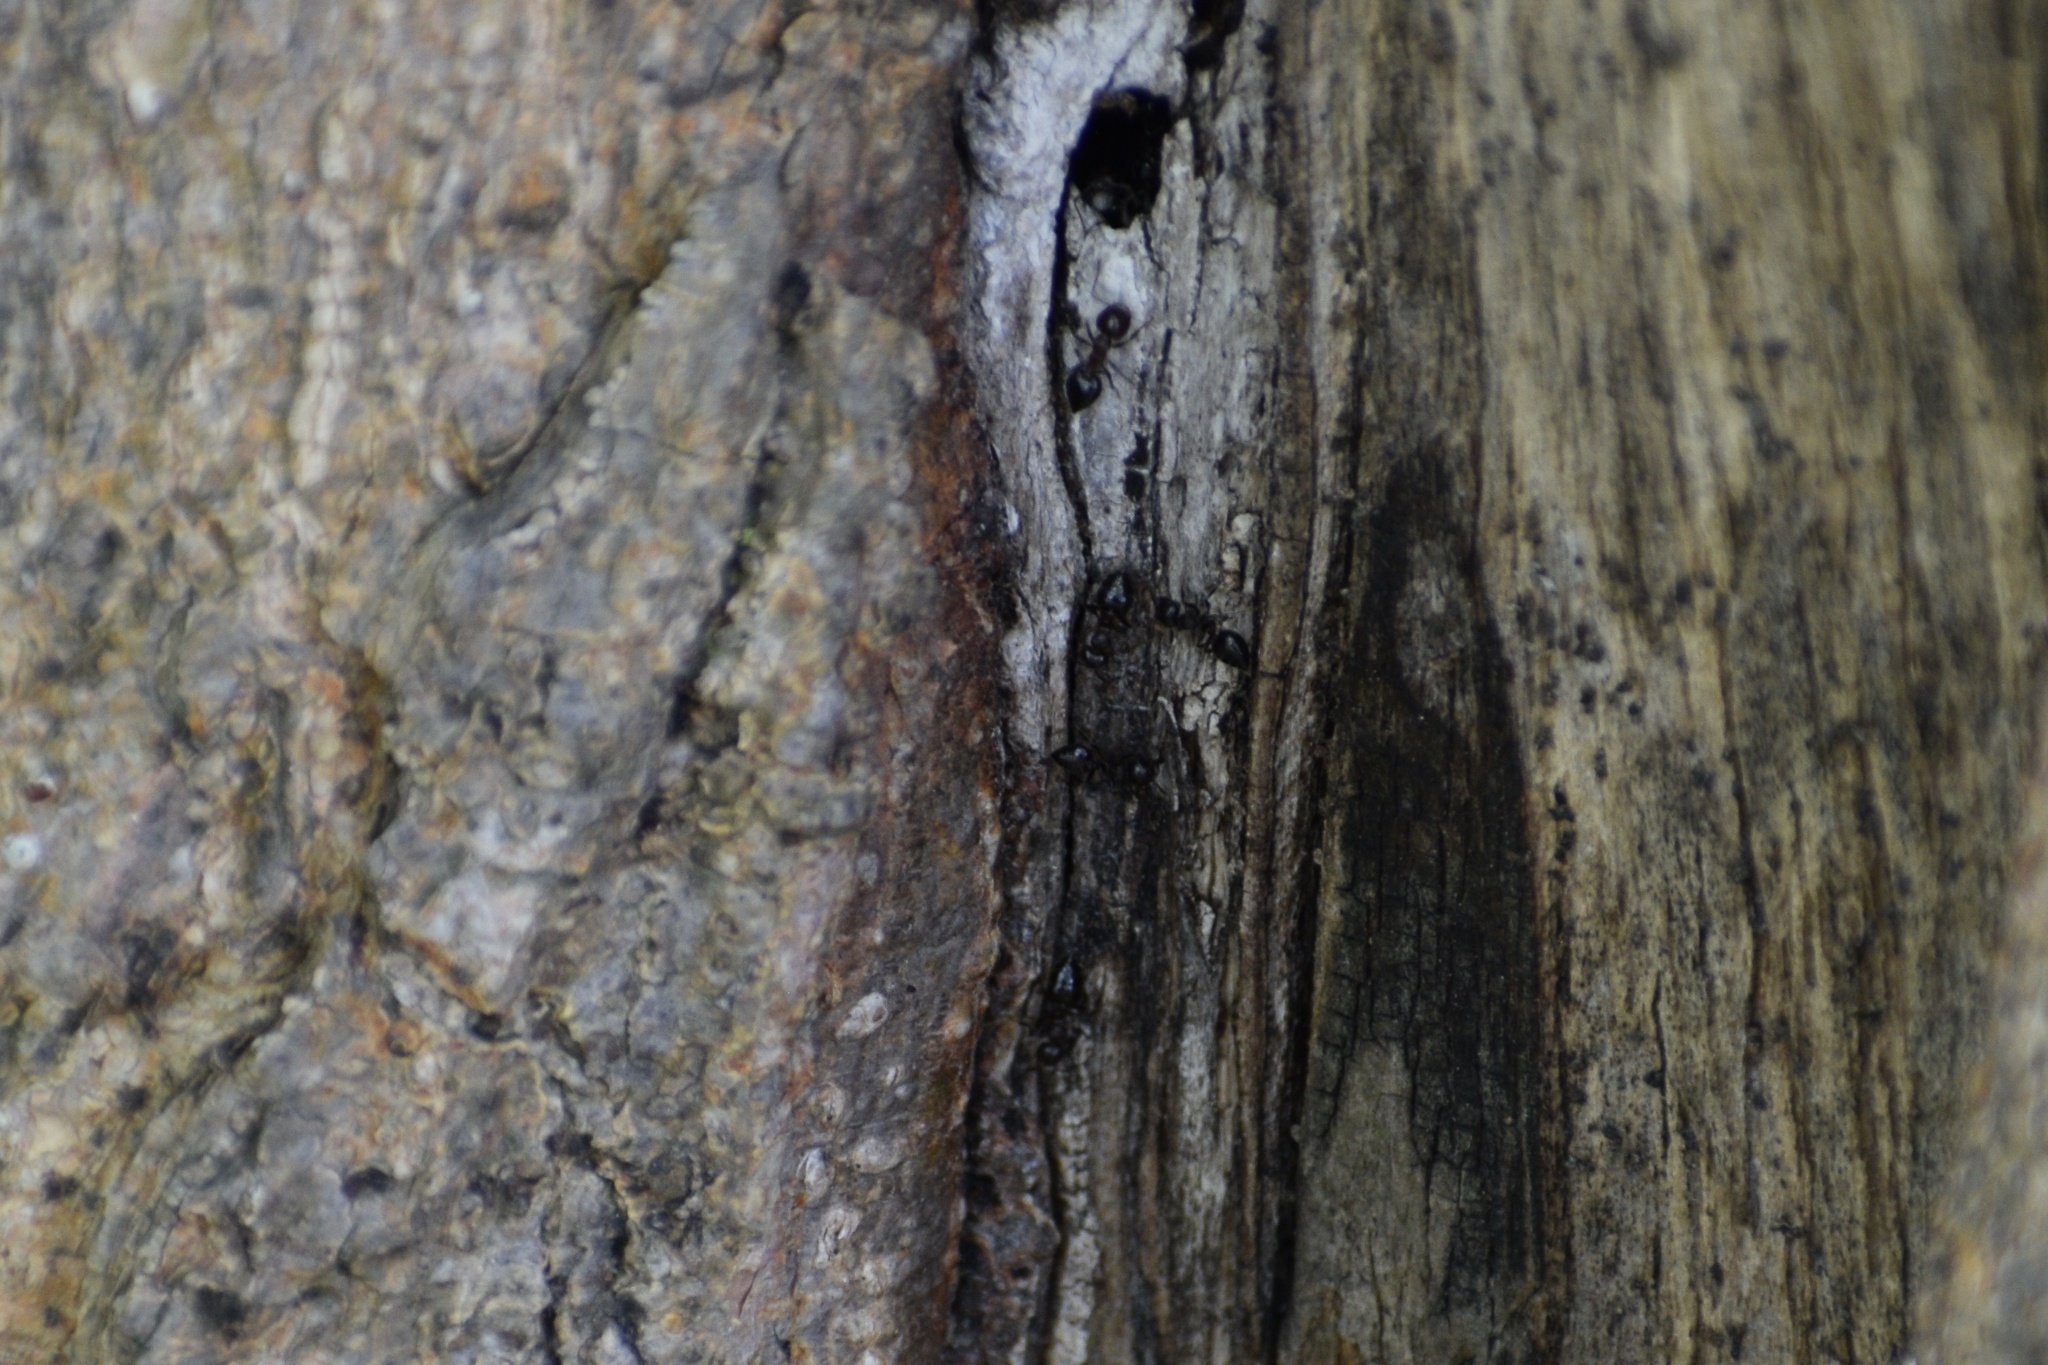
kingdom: Animalia
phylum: Arthropoda
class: Insecta
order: Hymenoptera
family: Formicidae
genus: Crematogaster
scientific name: Crematogaster
